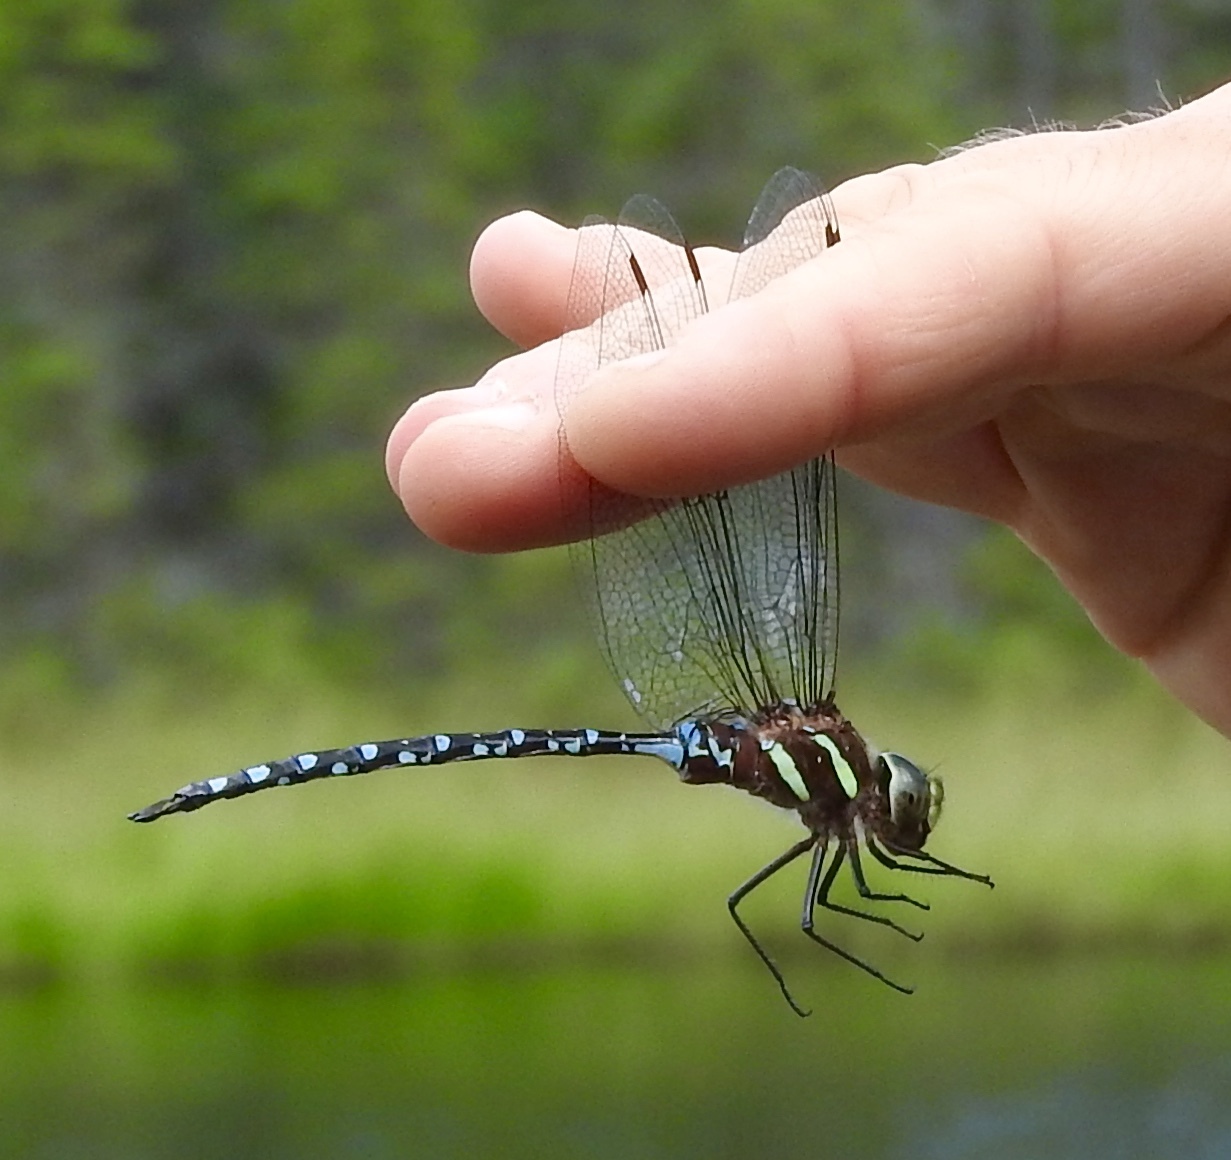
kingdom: Animalia
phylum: Arthropoda
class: Insecta
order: Odonata
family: Aeshnidae
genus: Aeshna
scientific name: Aeshna tuberculifera
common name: Aeschne à tubercules
